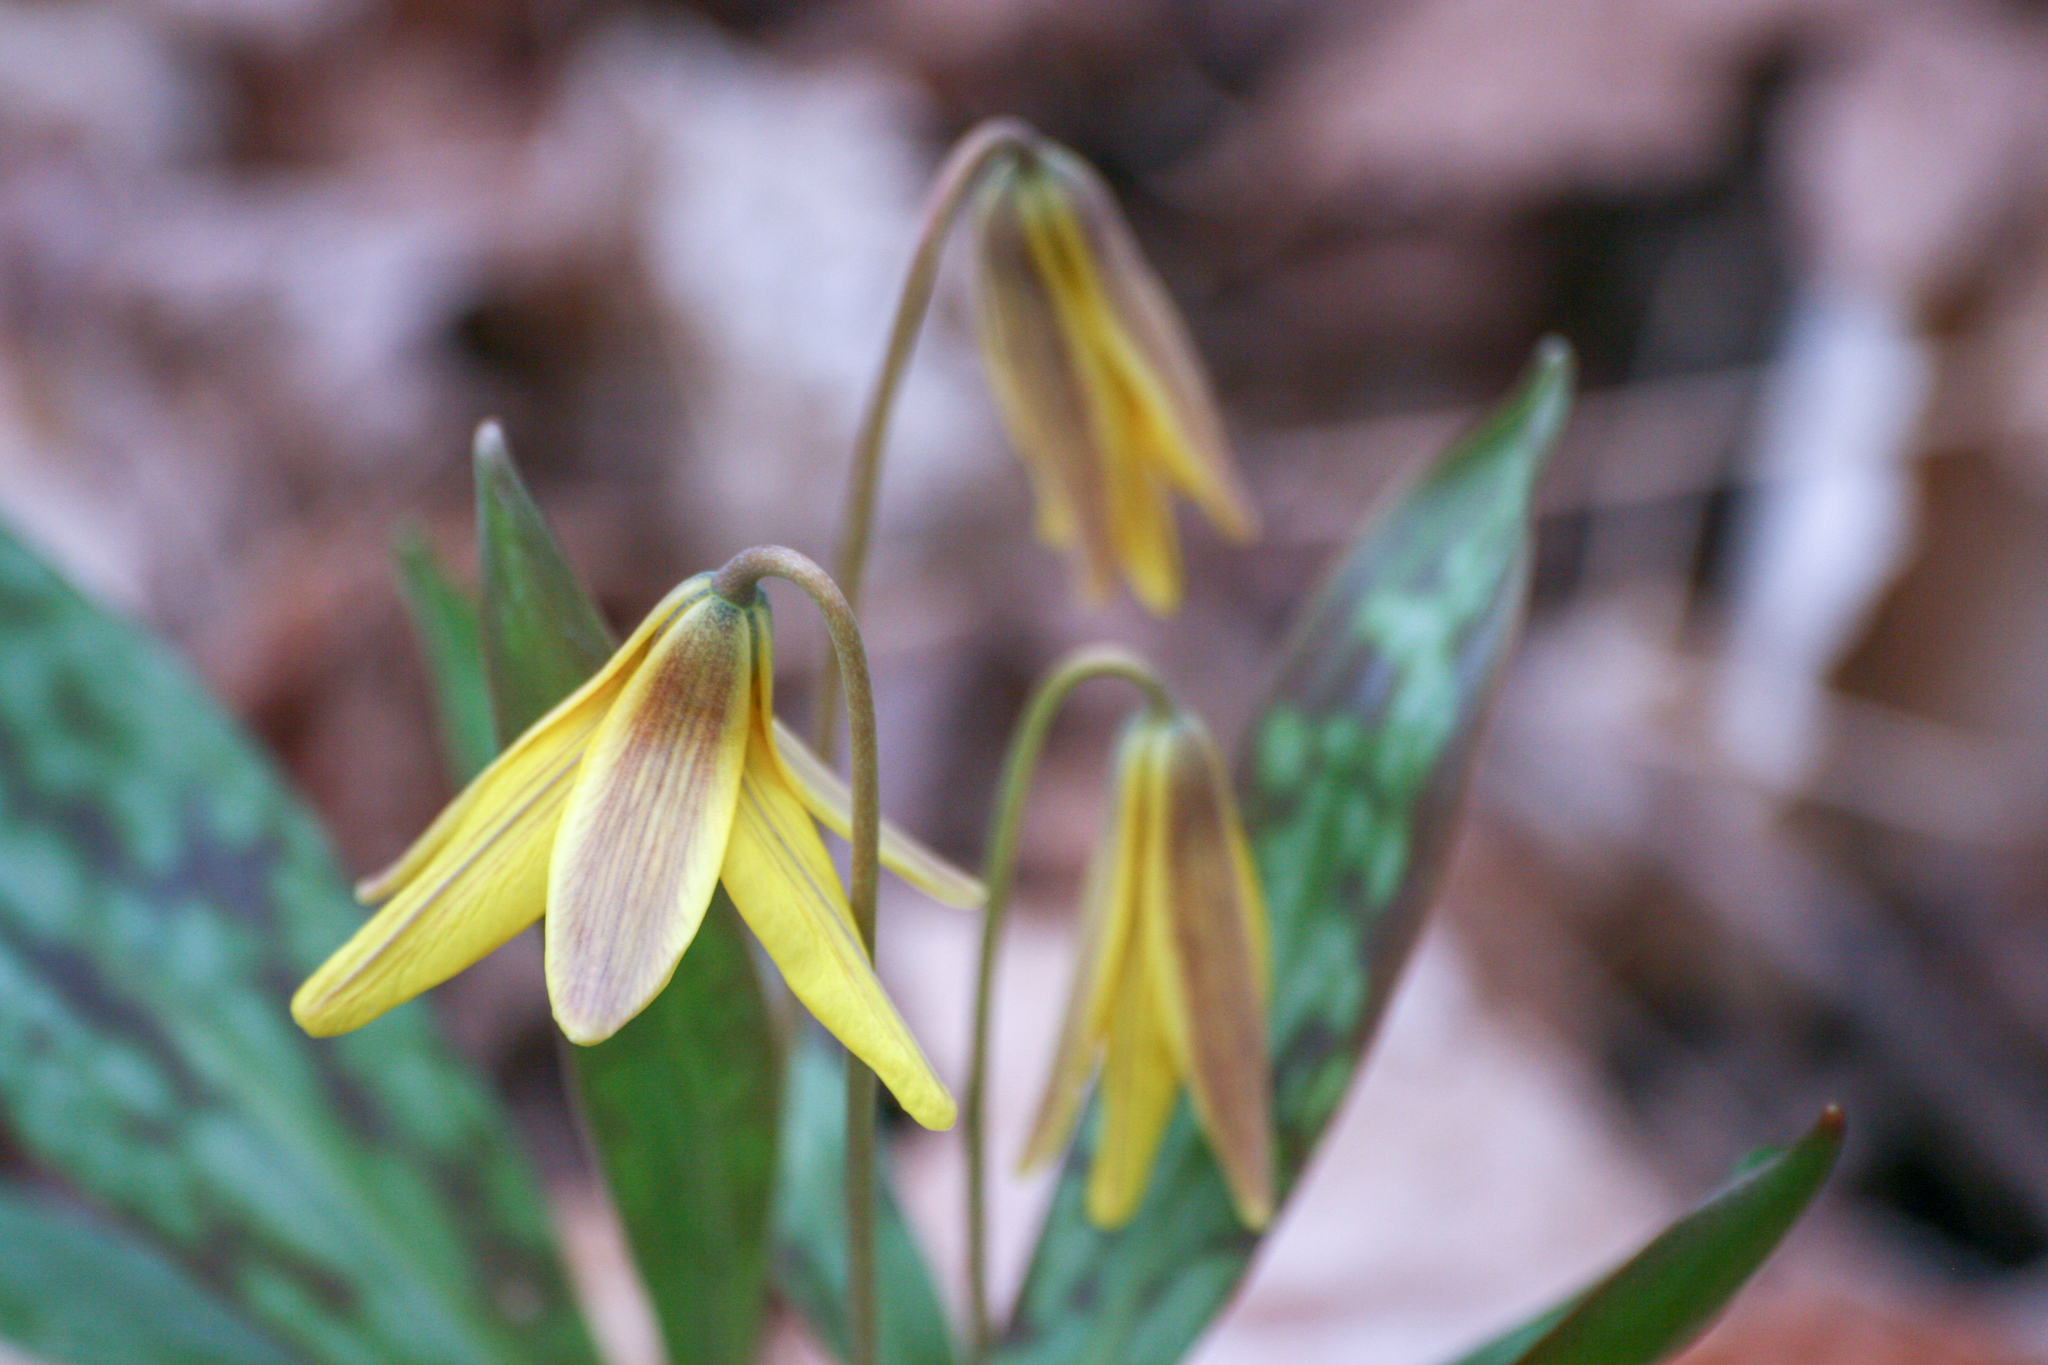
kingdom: Plantae
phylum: Tracheophyta
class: Liliopsida
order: Liliales
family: Liliaceae
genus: Erythronium
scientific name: Erythronium americanum
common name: Yellow adder's-tongue
